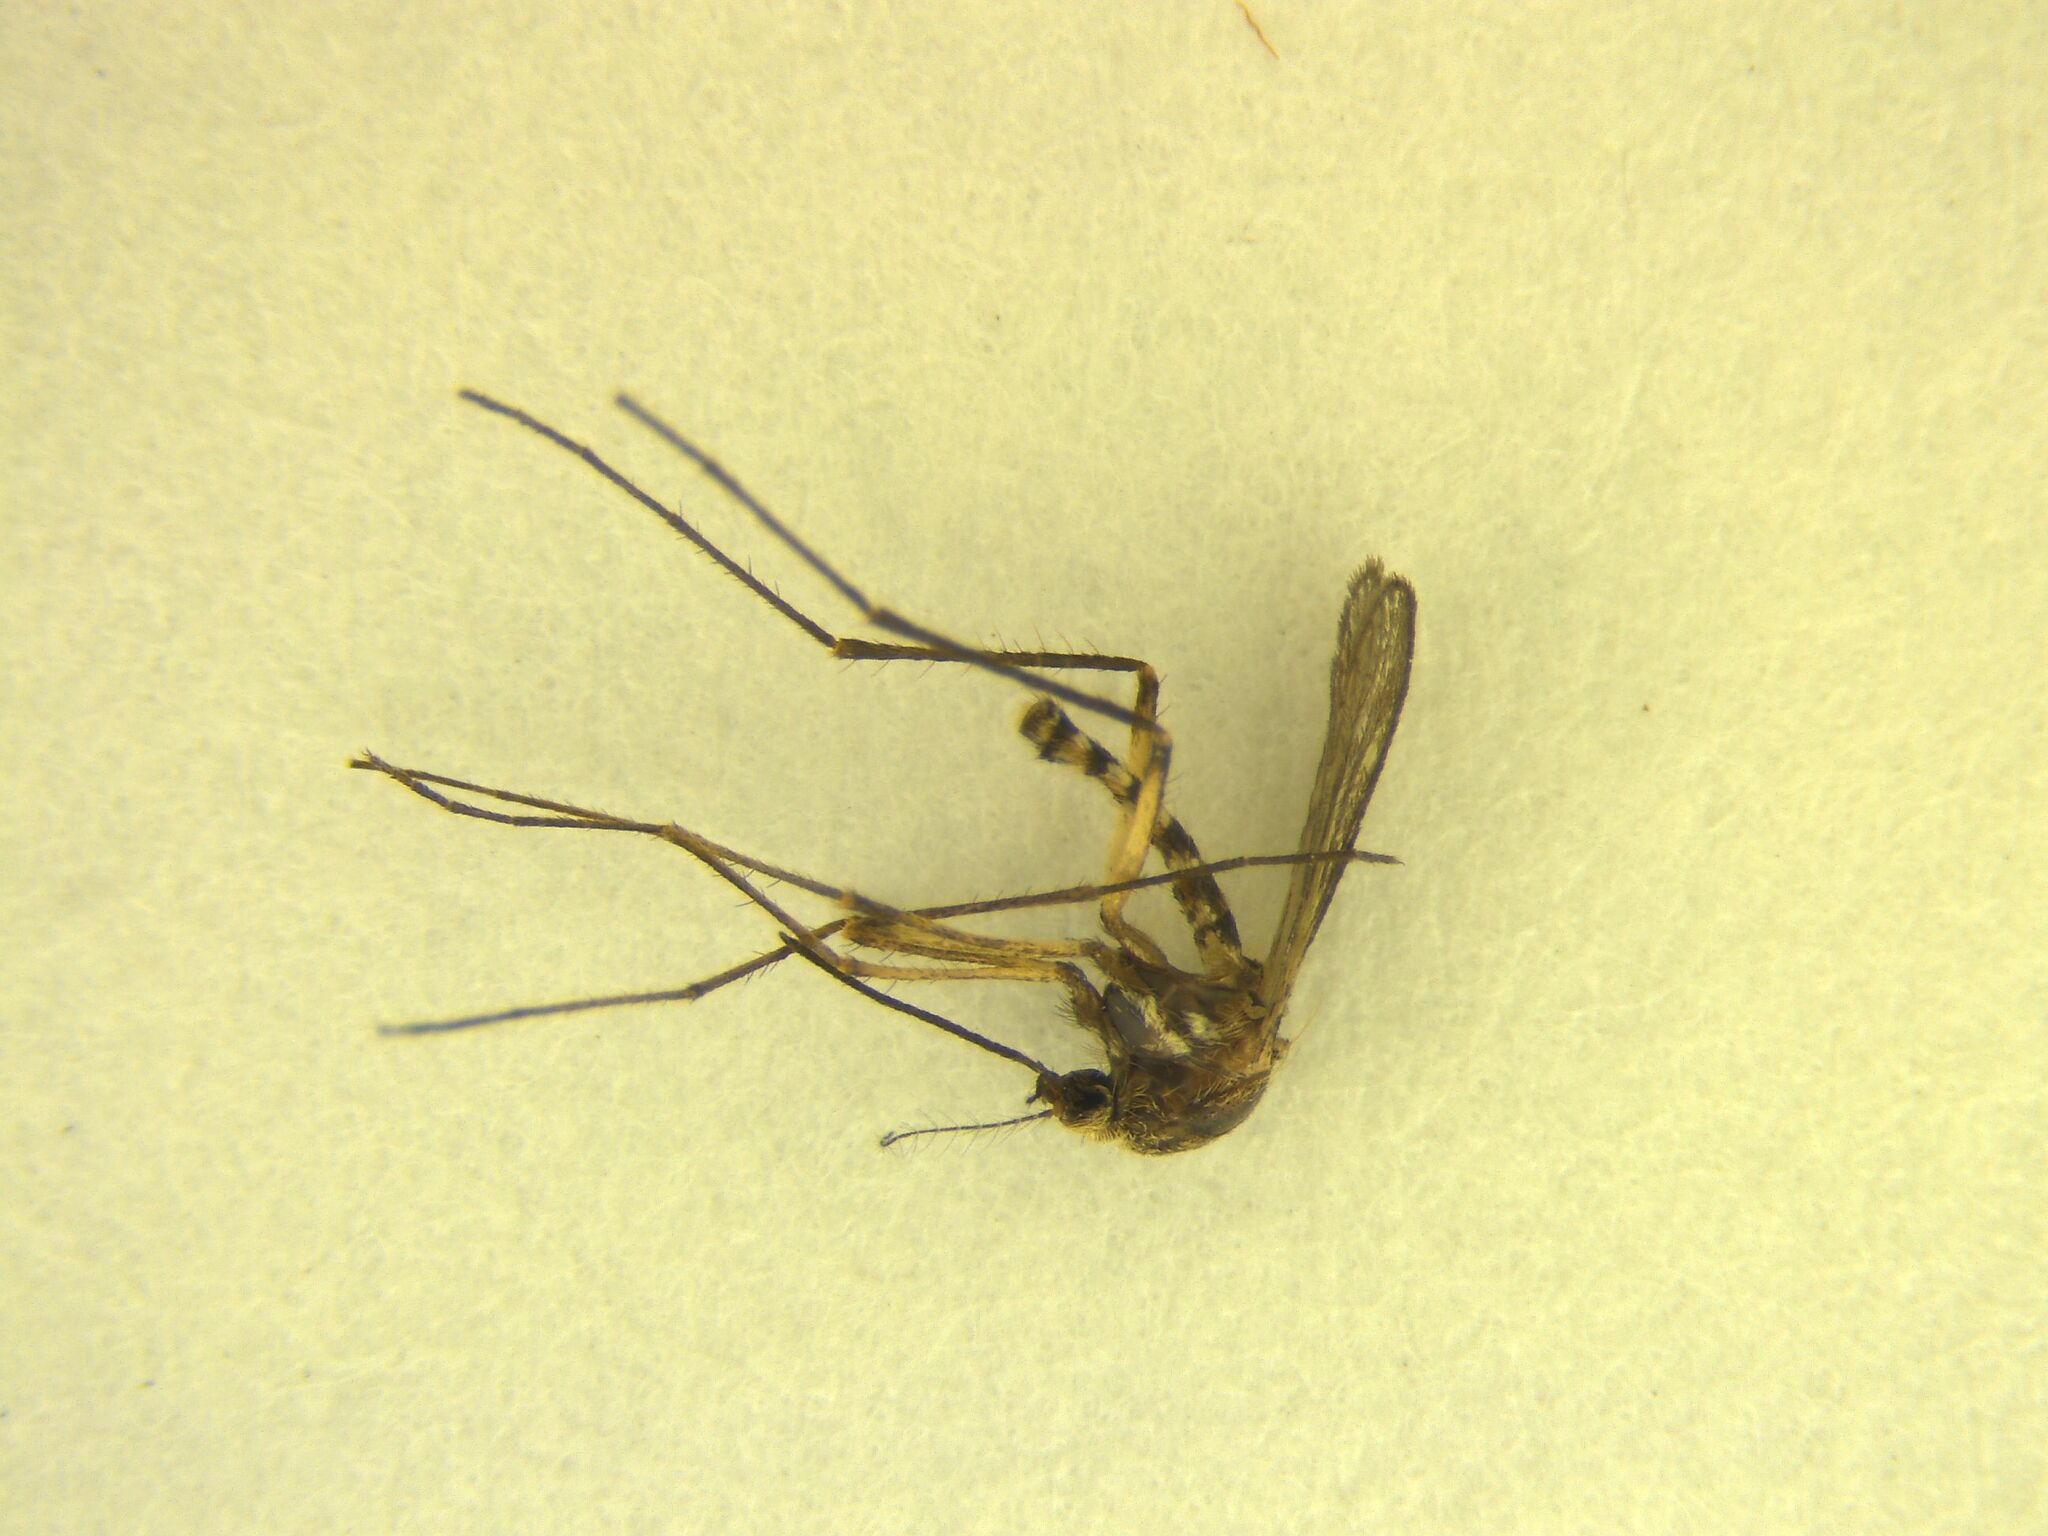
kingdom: Animalia
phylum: Arthropoda
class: Insecta
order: Diptera
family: Culicidae
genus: Coquillettidia
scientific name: Coquillettidia iracunda
